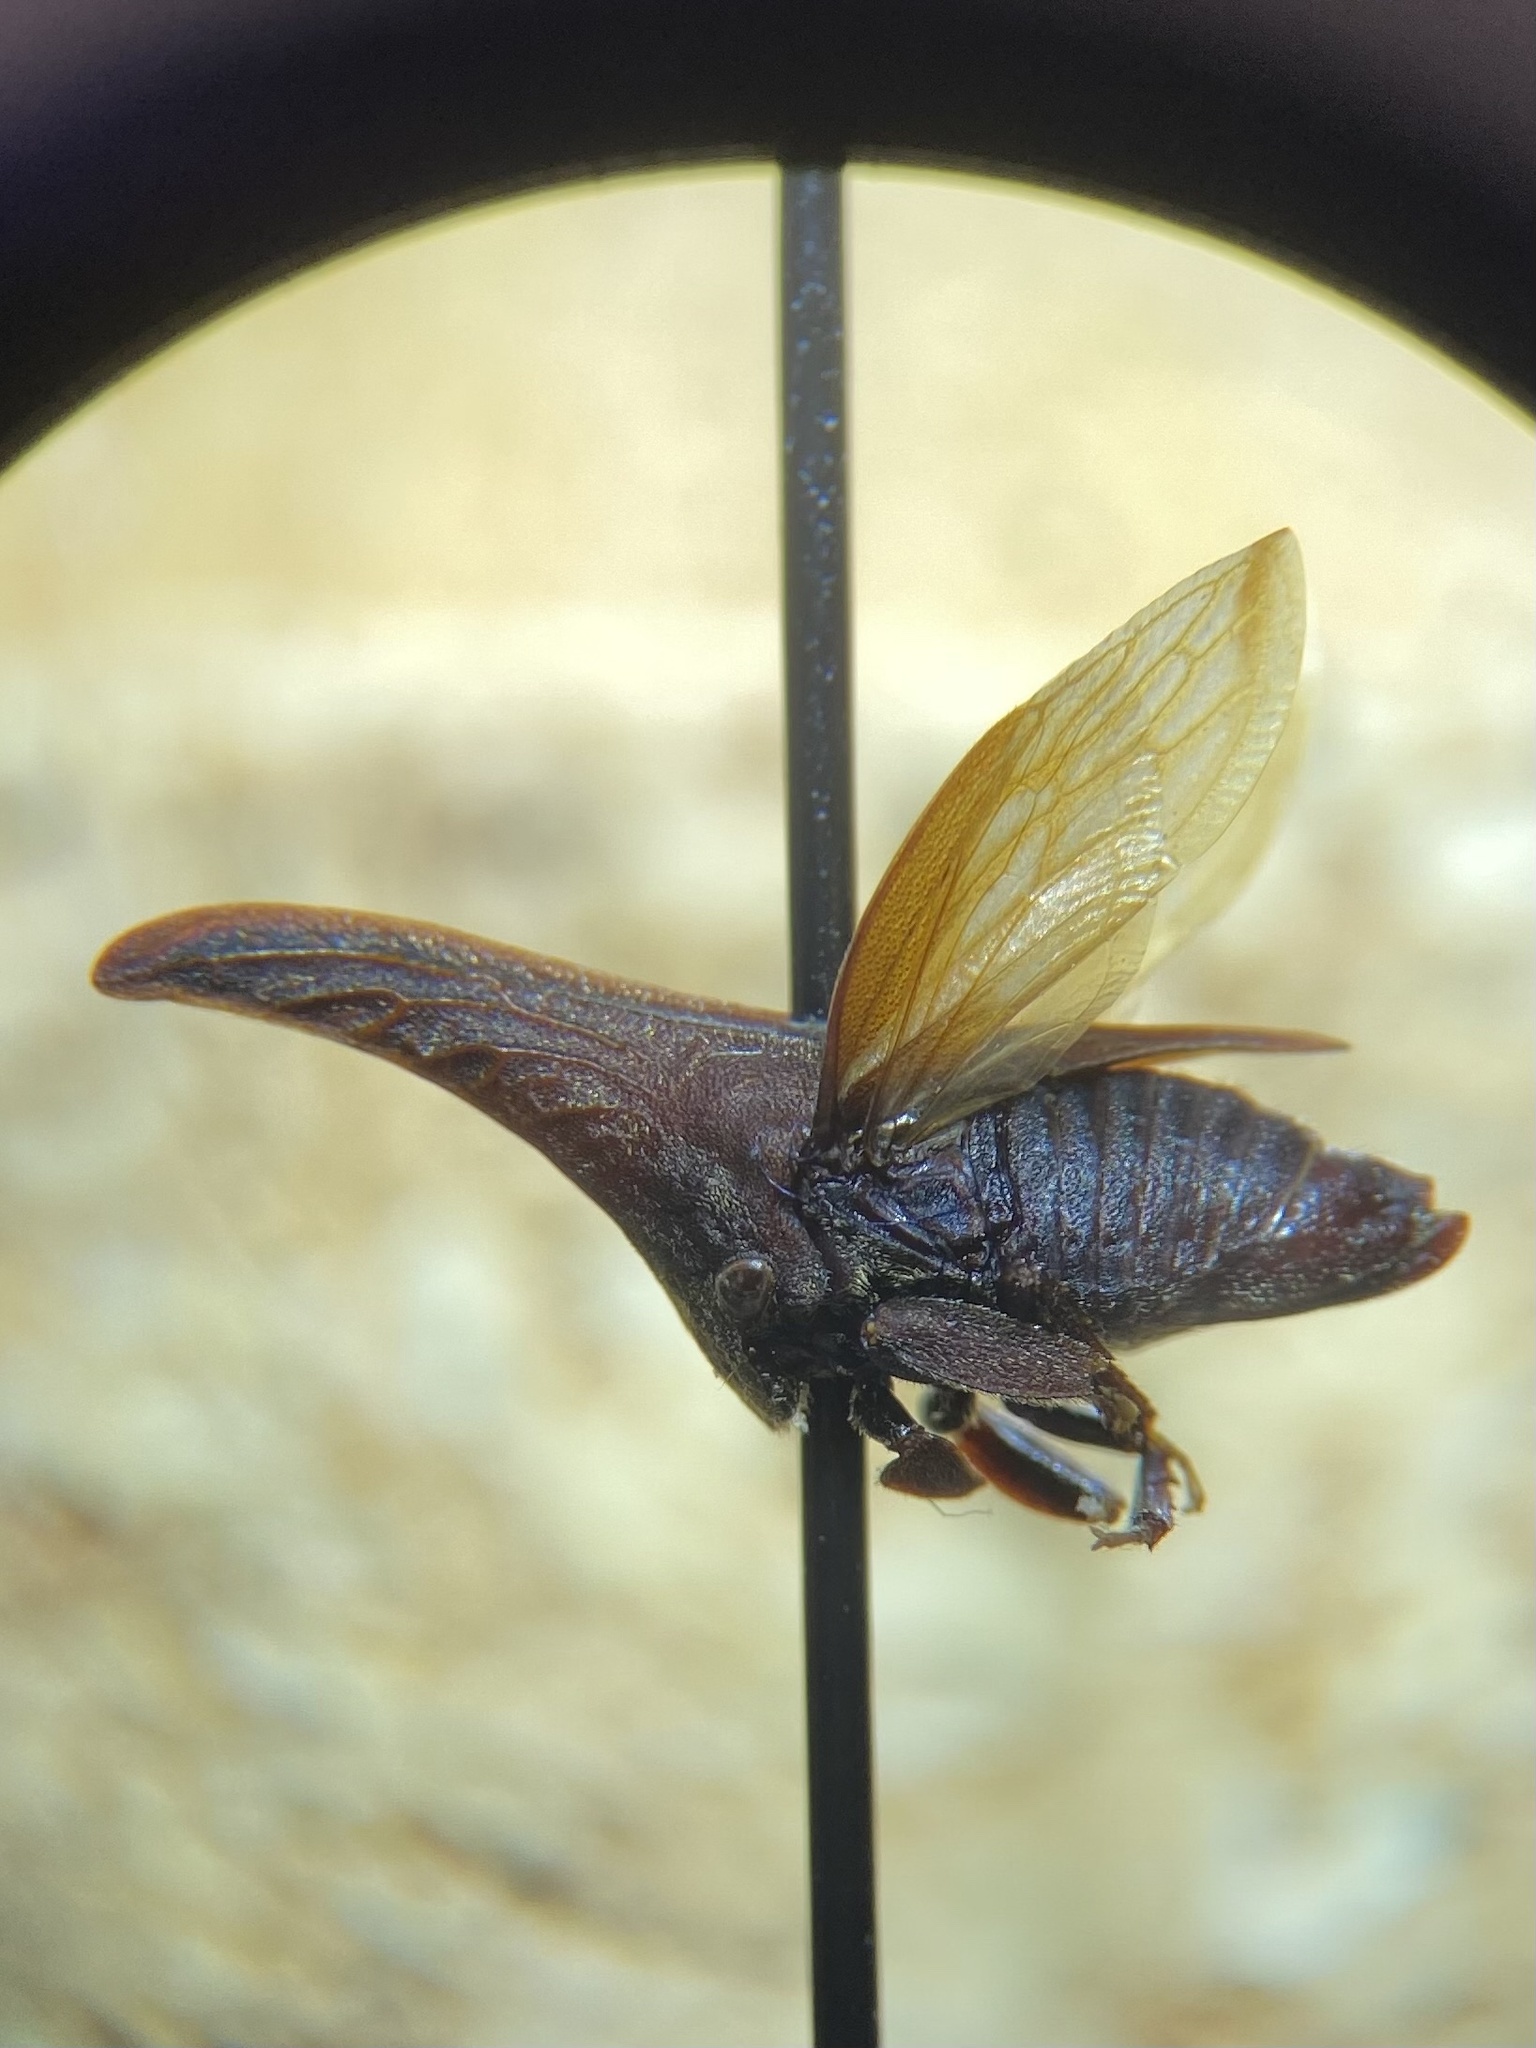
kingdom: Animalia
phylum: Arthropoda
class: Insecta
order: Hemiptera
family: Membracidae
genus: Enchenopa
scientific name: Enchenopa latipes
